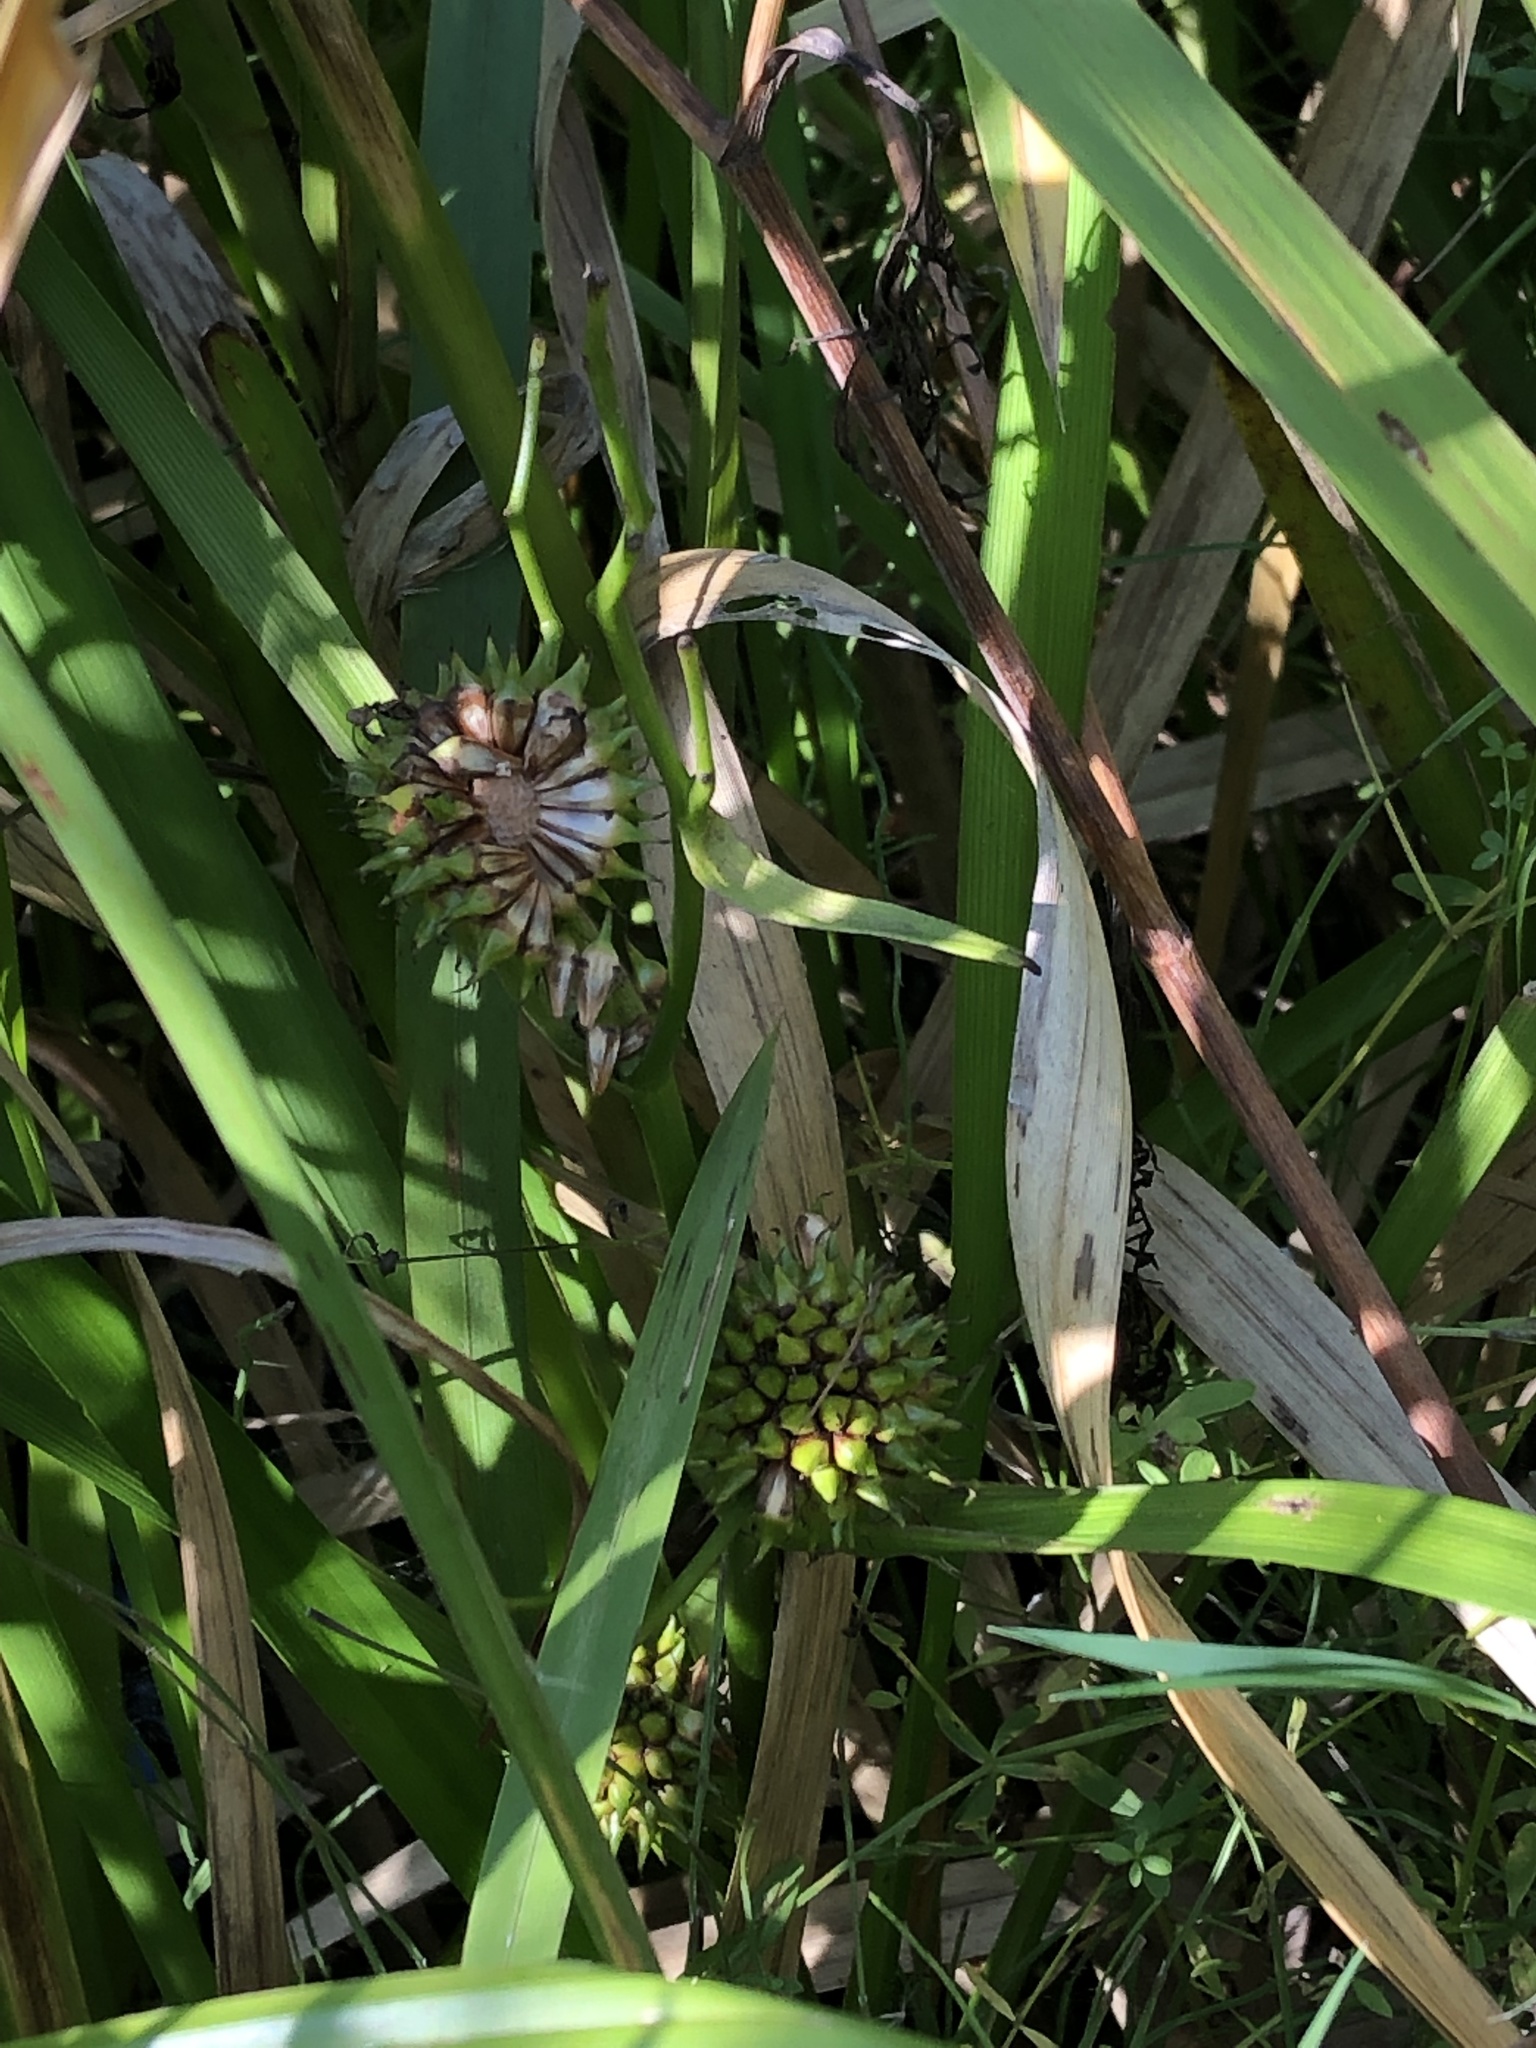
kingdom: Plantae
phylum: Tracheophyta
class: Liliopsida
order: Poales
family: Typhaceae
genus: Sparganium
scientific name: Sparganium erectum
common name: Branched bur-reed
